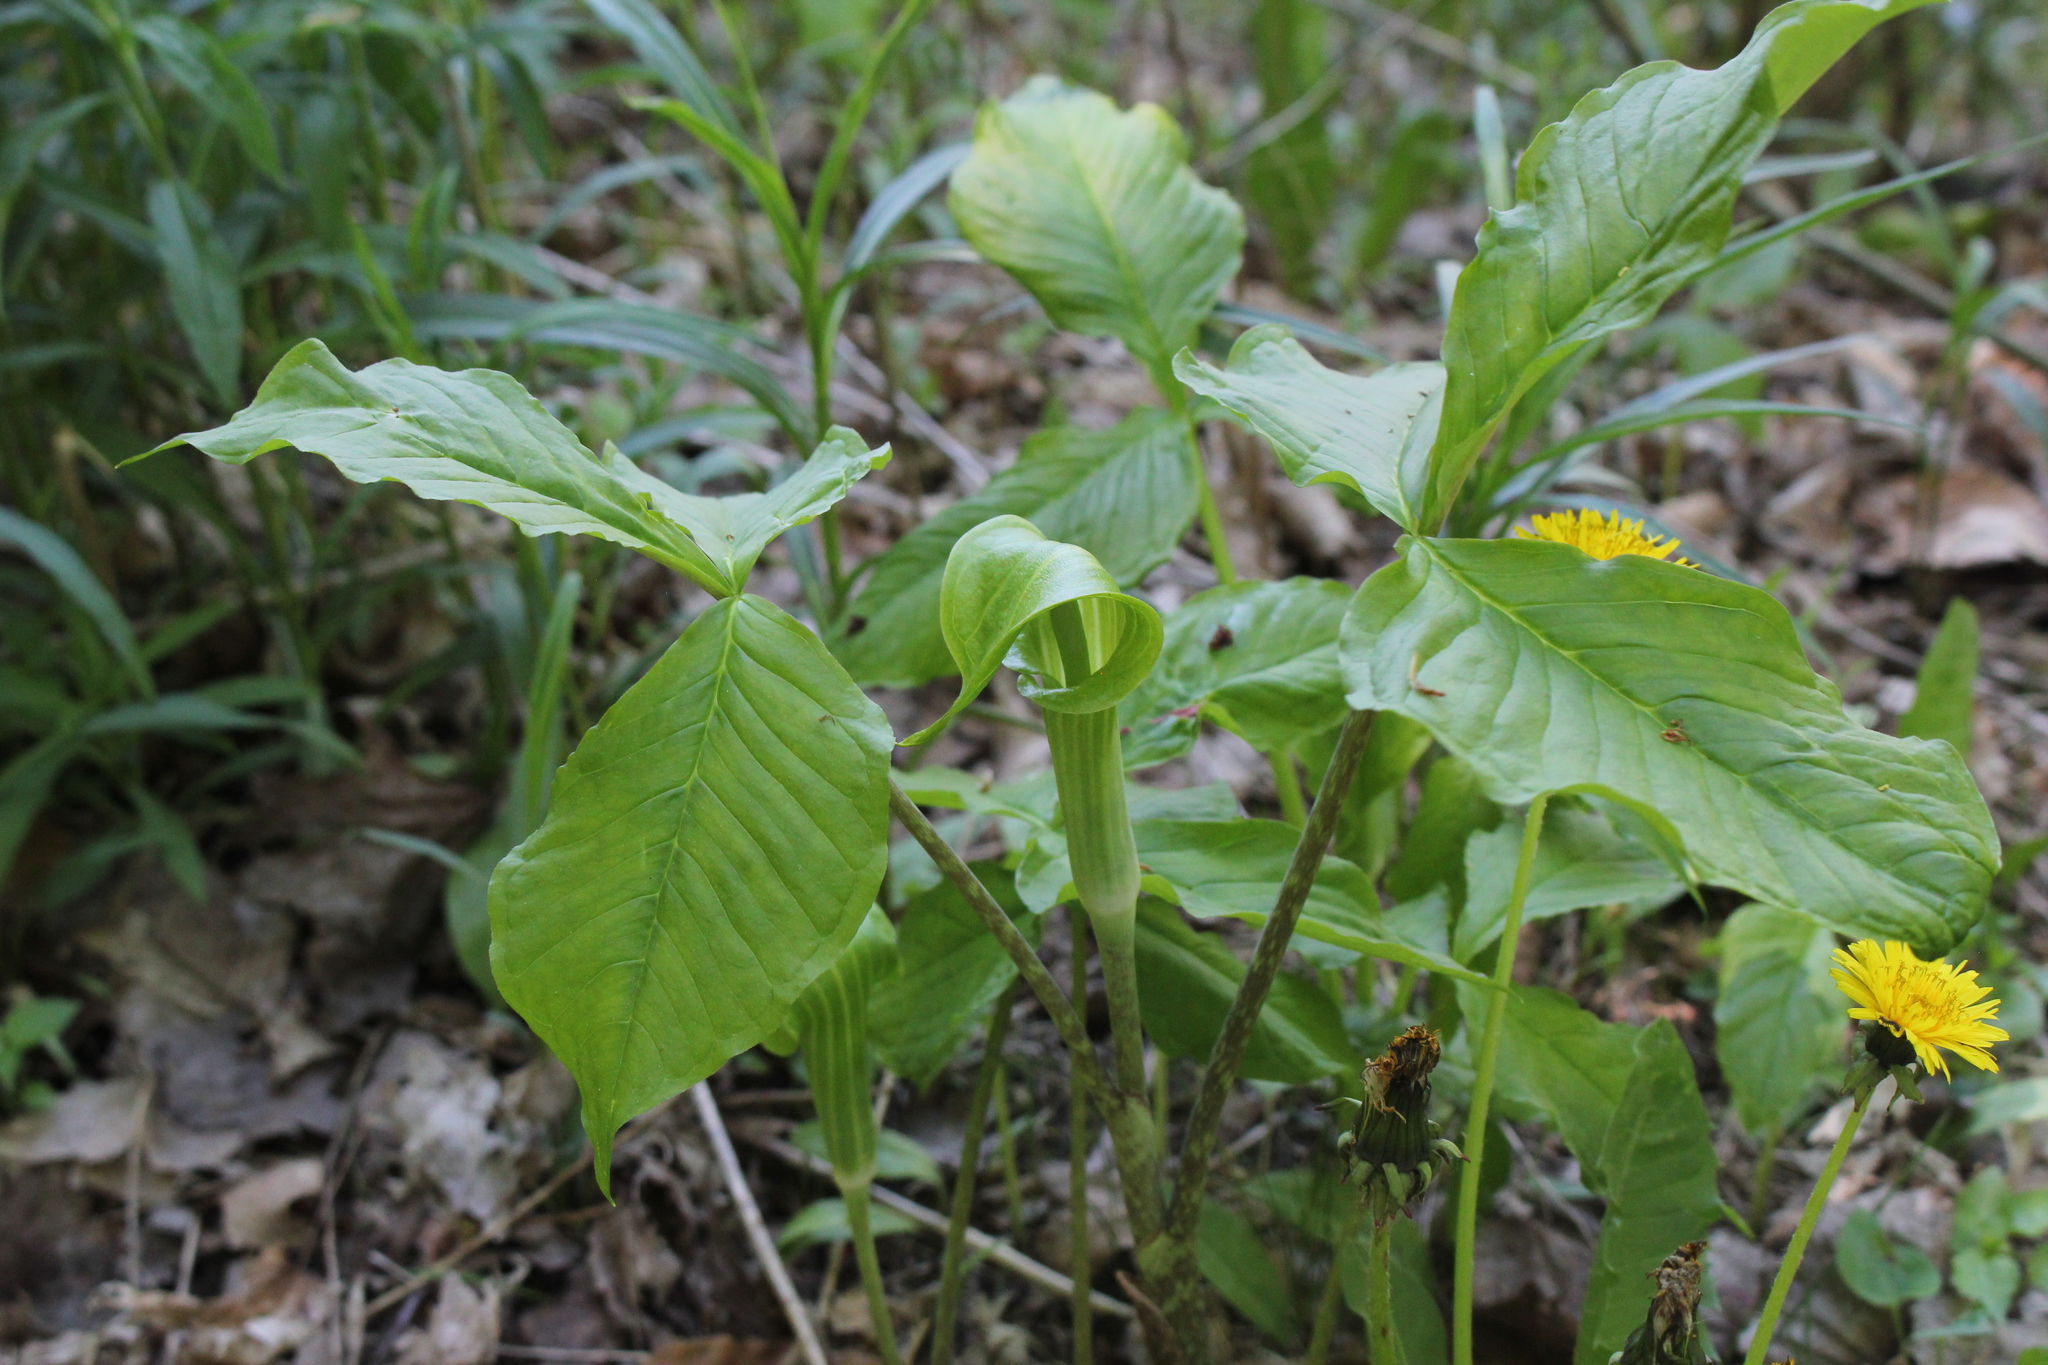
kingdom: Plantae
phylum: Tracheophyta
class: Liliopsida
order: Alismatales
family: Araceae
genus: Arisaema
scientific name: Arisaema triphyllum
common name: Jack-in-the-pulpit
